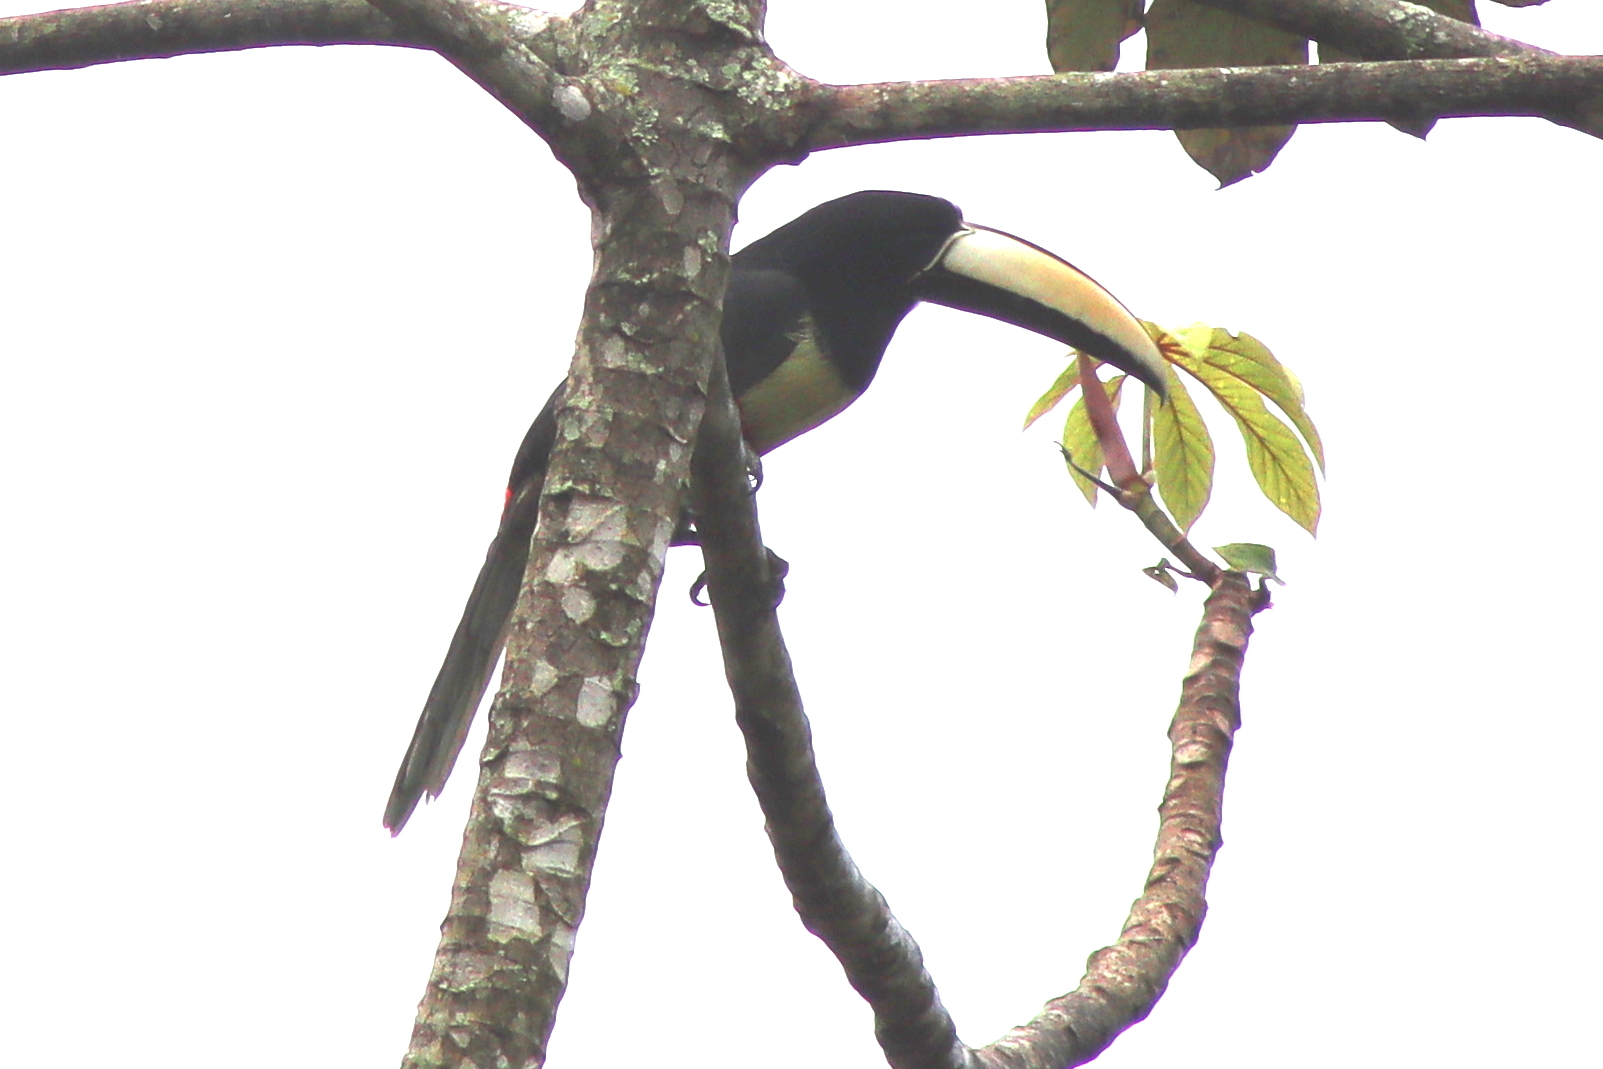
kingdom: Animalia
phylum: Chordata
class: Aves
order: Piciformes
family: Ramphastidae
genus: Pteroglossus
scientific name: Pteroglossus aracari
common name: Black-necked aracari
